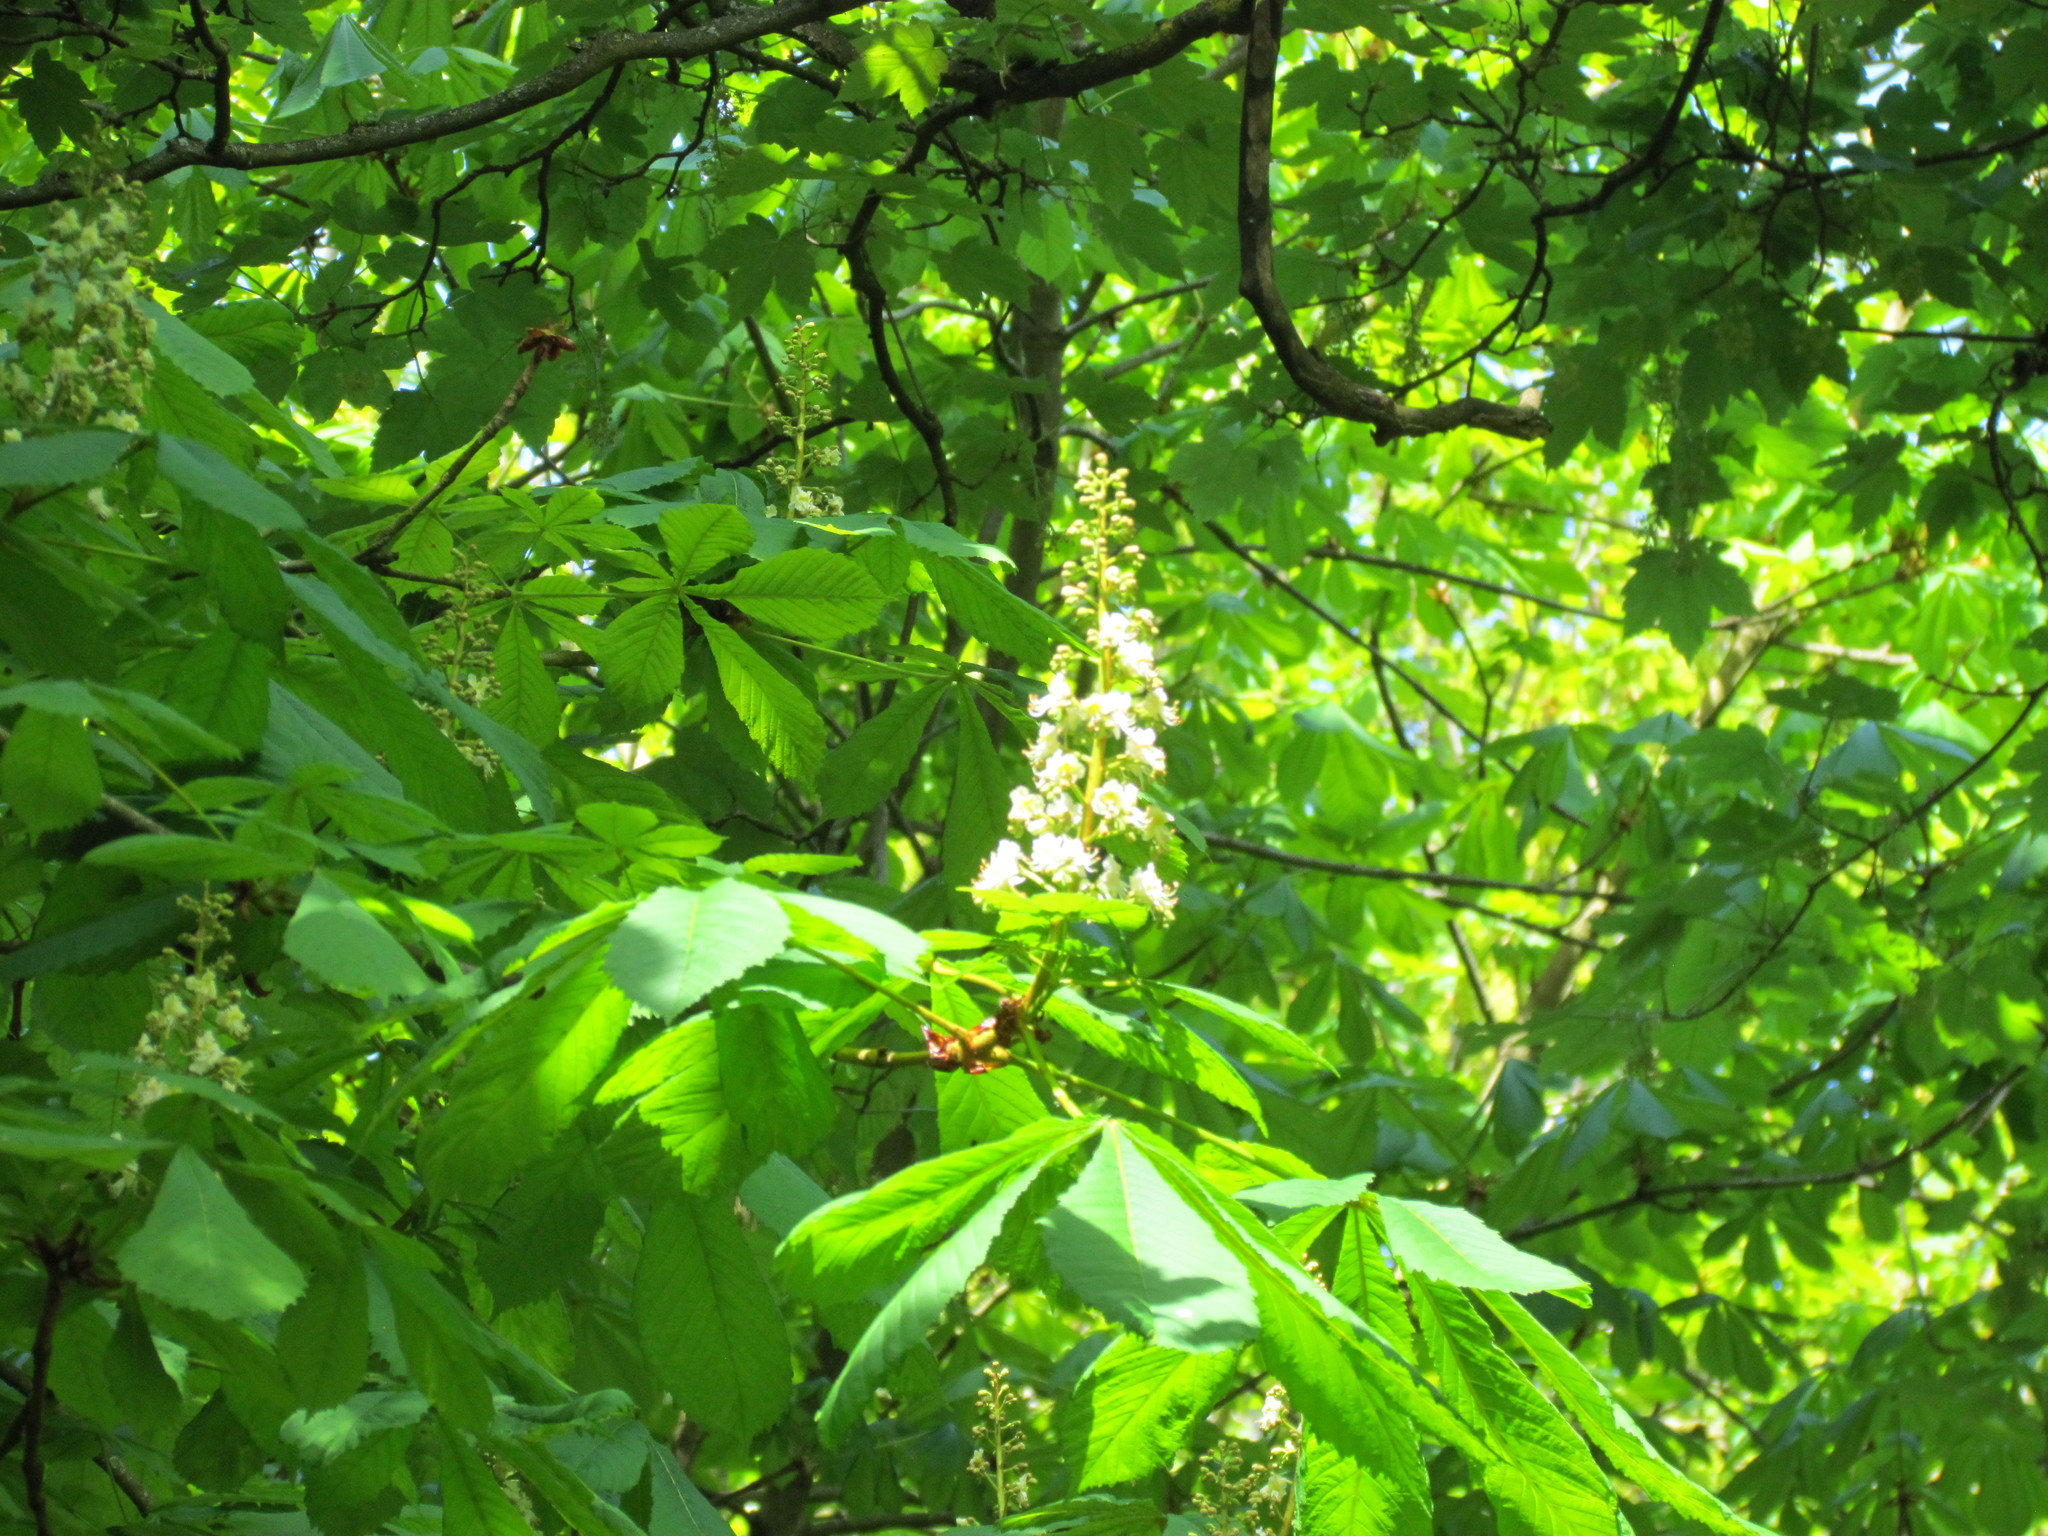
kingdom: Plantae
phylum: Tracheophyta
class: Magnoliopsida
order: Sapindales
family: Sapindaceae
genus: Aesculus
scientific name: Aesculus hippocastanum
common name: Horse-chestnut
